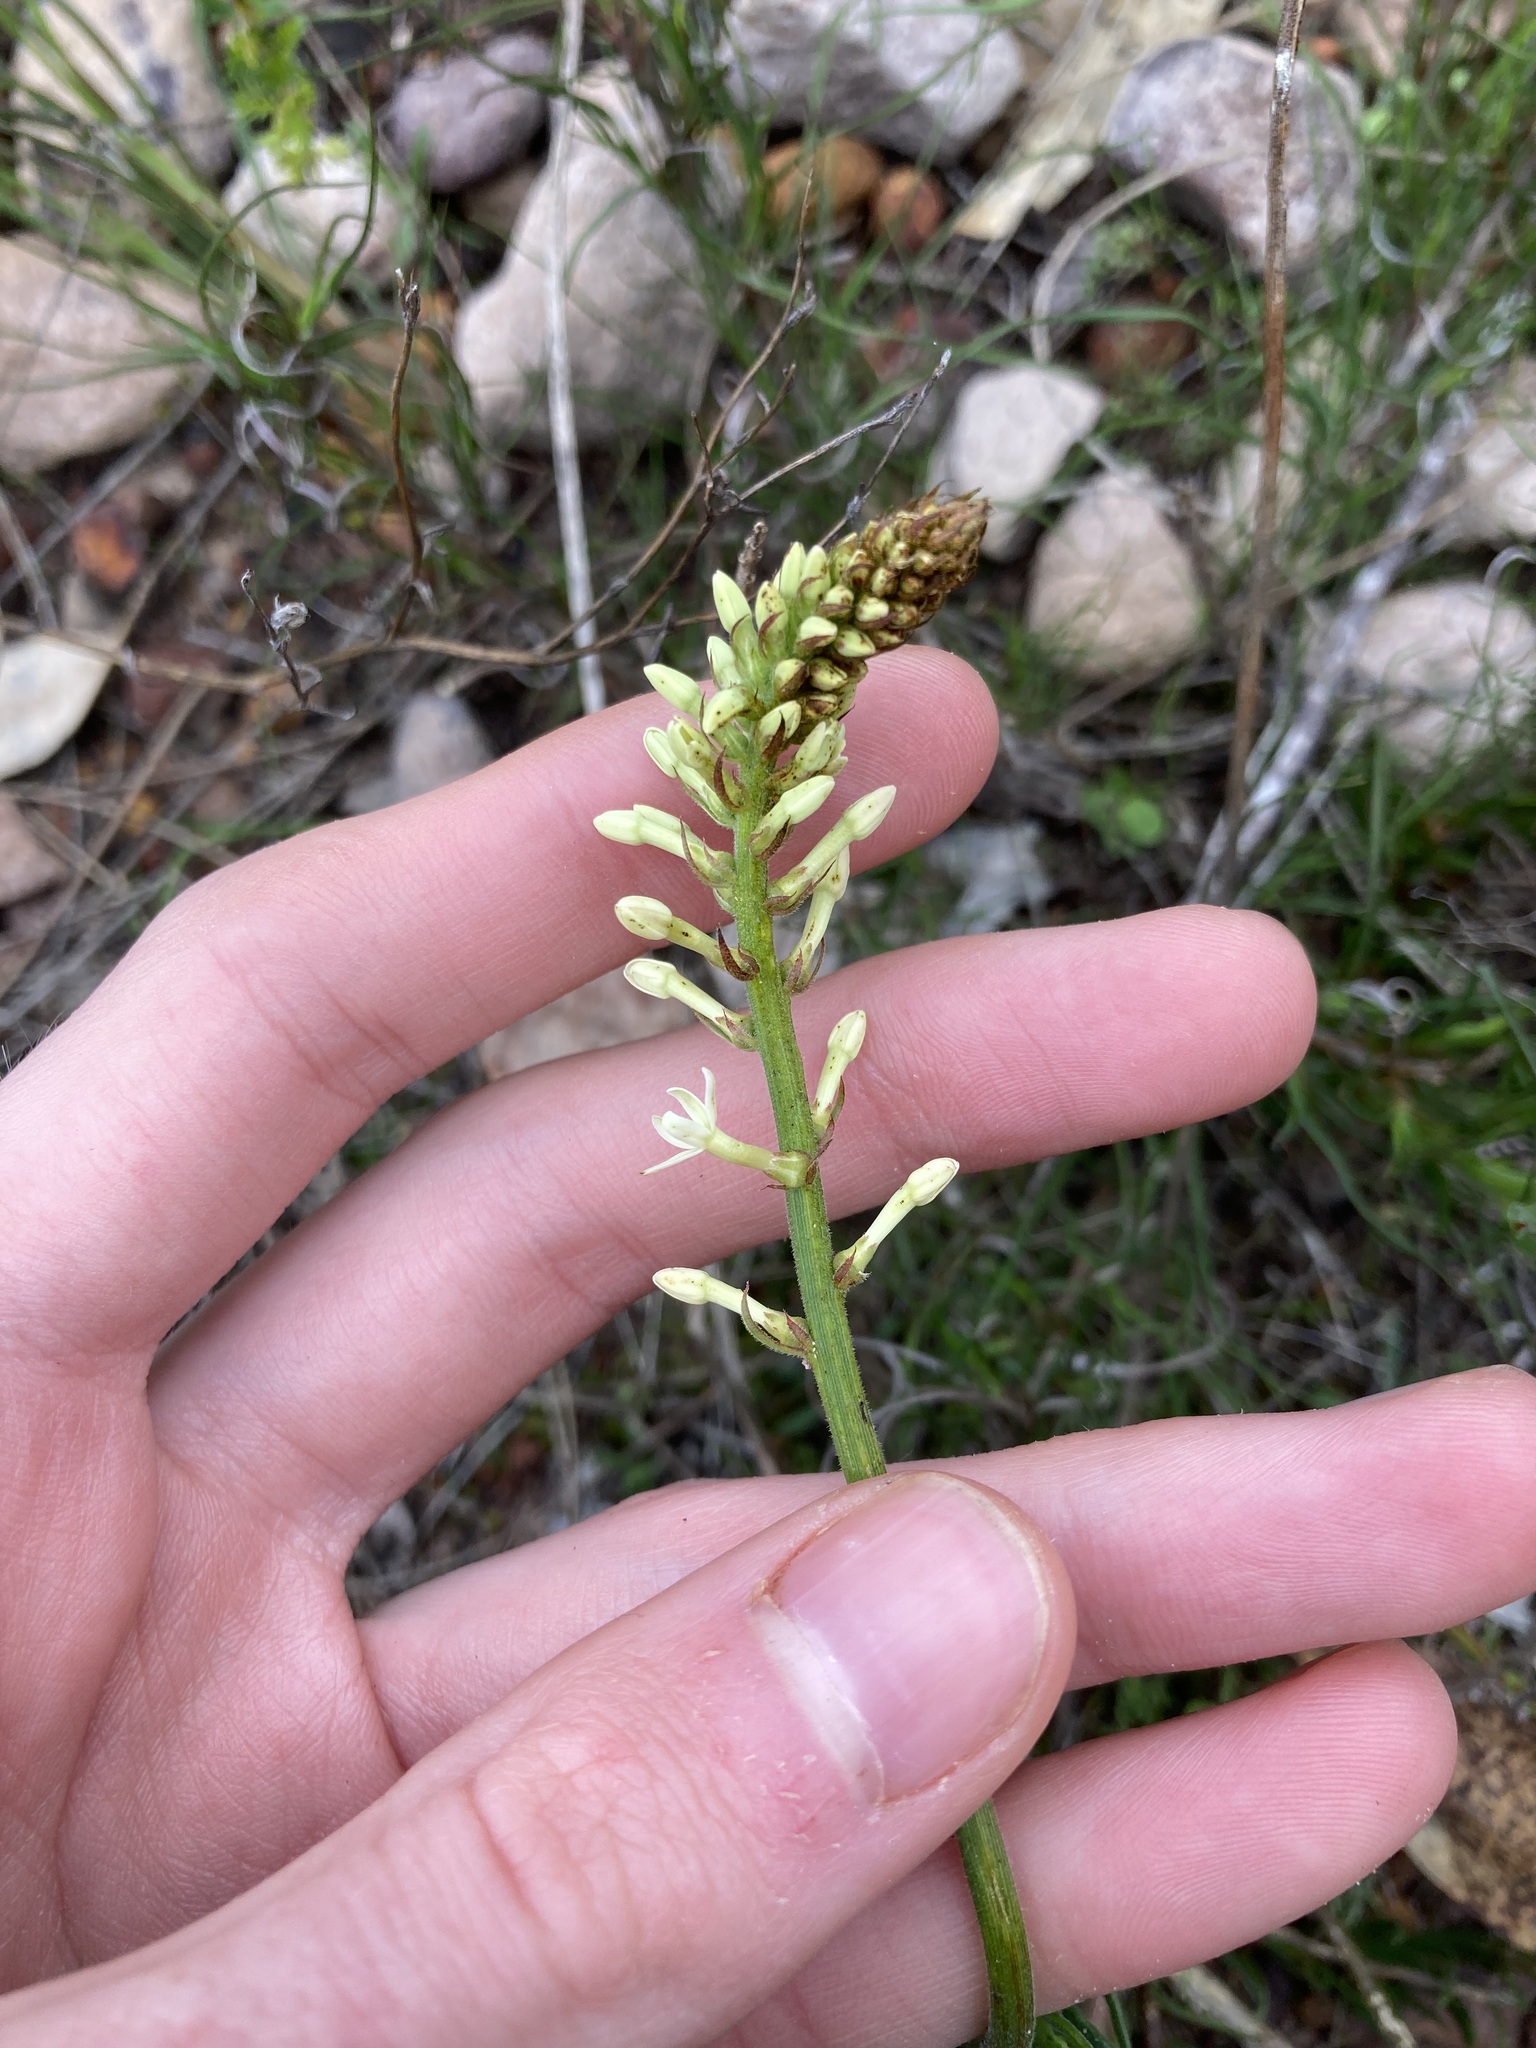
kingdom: Plantae
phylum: Tracheophyta
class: Magnoliopsida
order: Celastrales
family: Celastraceae
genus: Stackhousia
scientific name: Stackhousia monogyna
